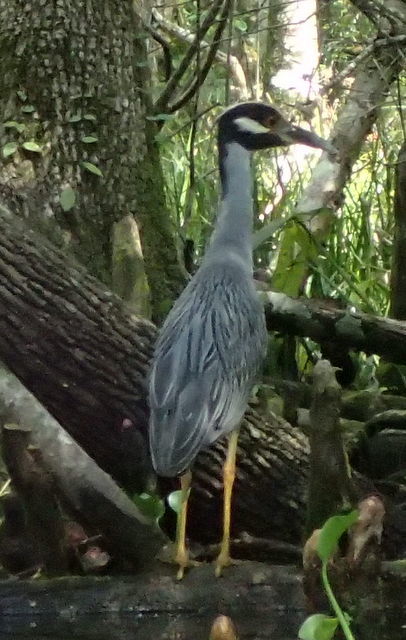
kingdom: Animalia
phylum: Chordata
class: Aves
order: Pelecaniformes
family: Ardeidae
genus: Nyctanassa
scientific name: Nyctanassa violacea
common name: Yellow-crowned night heron
